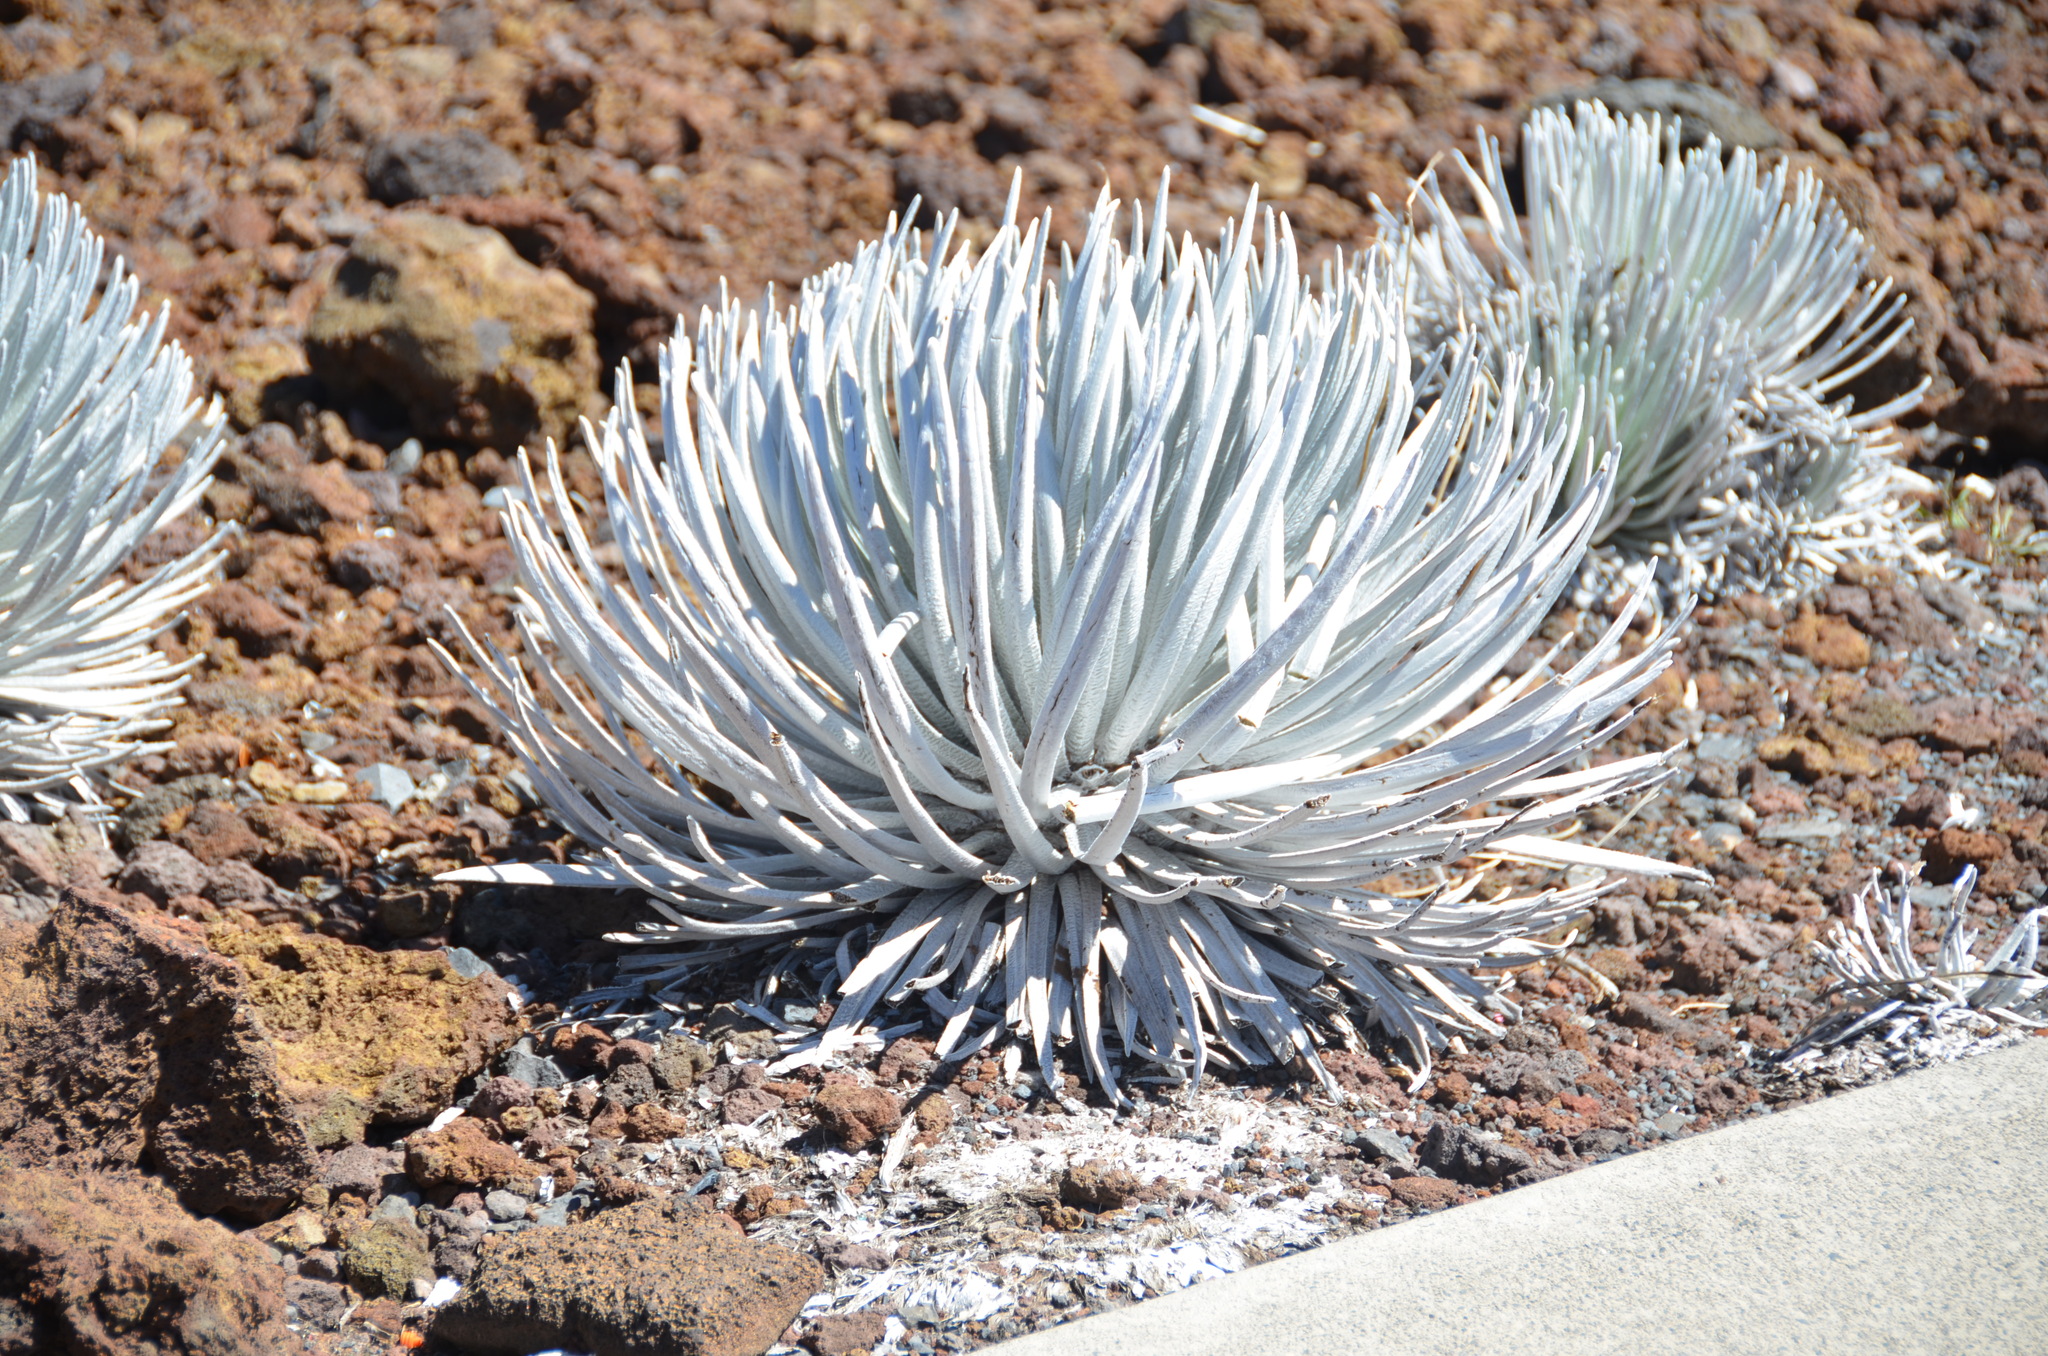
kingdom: Plantae
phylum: Tracheophyta
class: Magnoliopsida
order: Asterales
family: Asteraceae
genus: Argyroxiphium
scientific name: Argyroxiphium sandwicense
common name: Silversword
